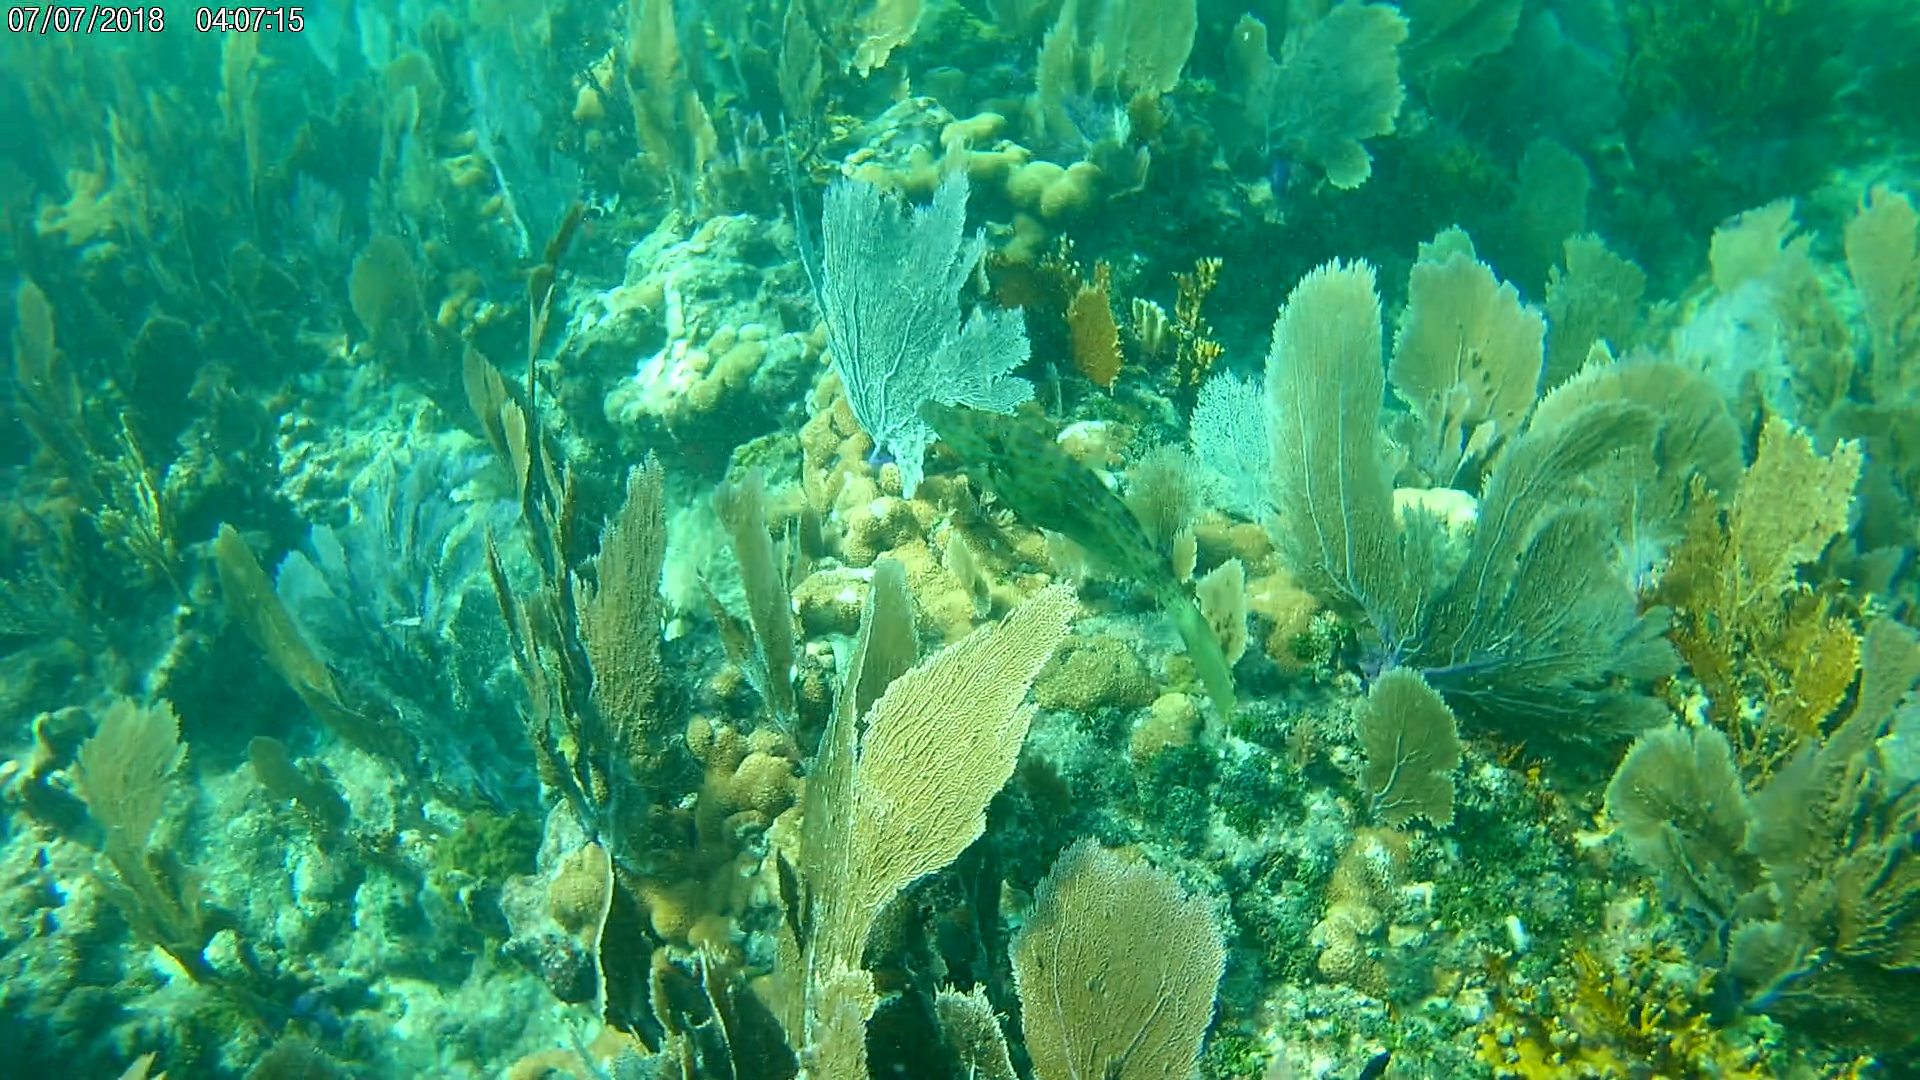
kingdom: Animalia
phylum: Chordata
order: Tetraodontiformes
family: Monacanthidae
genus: Aluterus
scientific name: Aluterus scriptus
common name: Scribbled leatherjacket filefish
